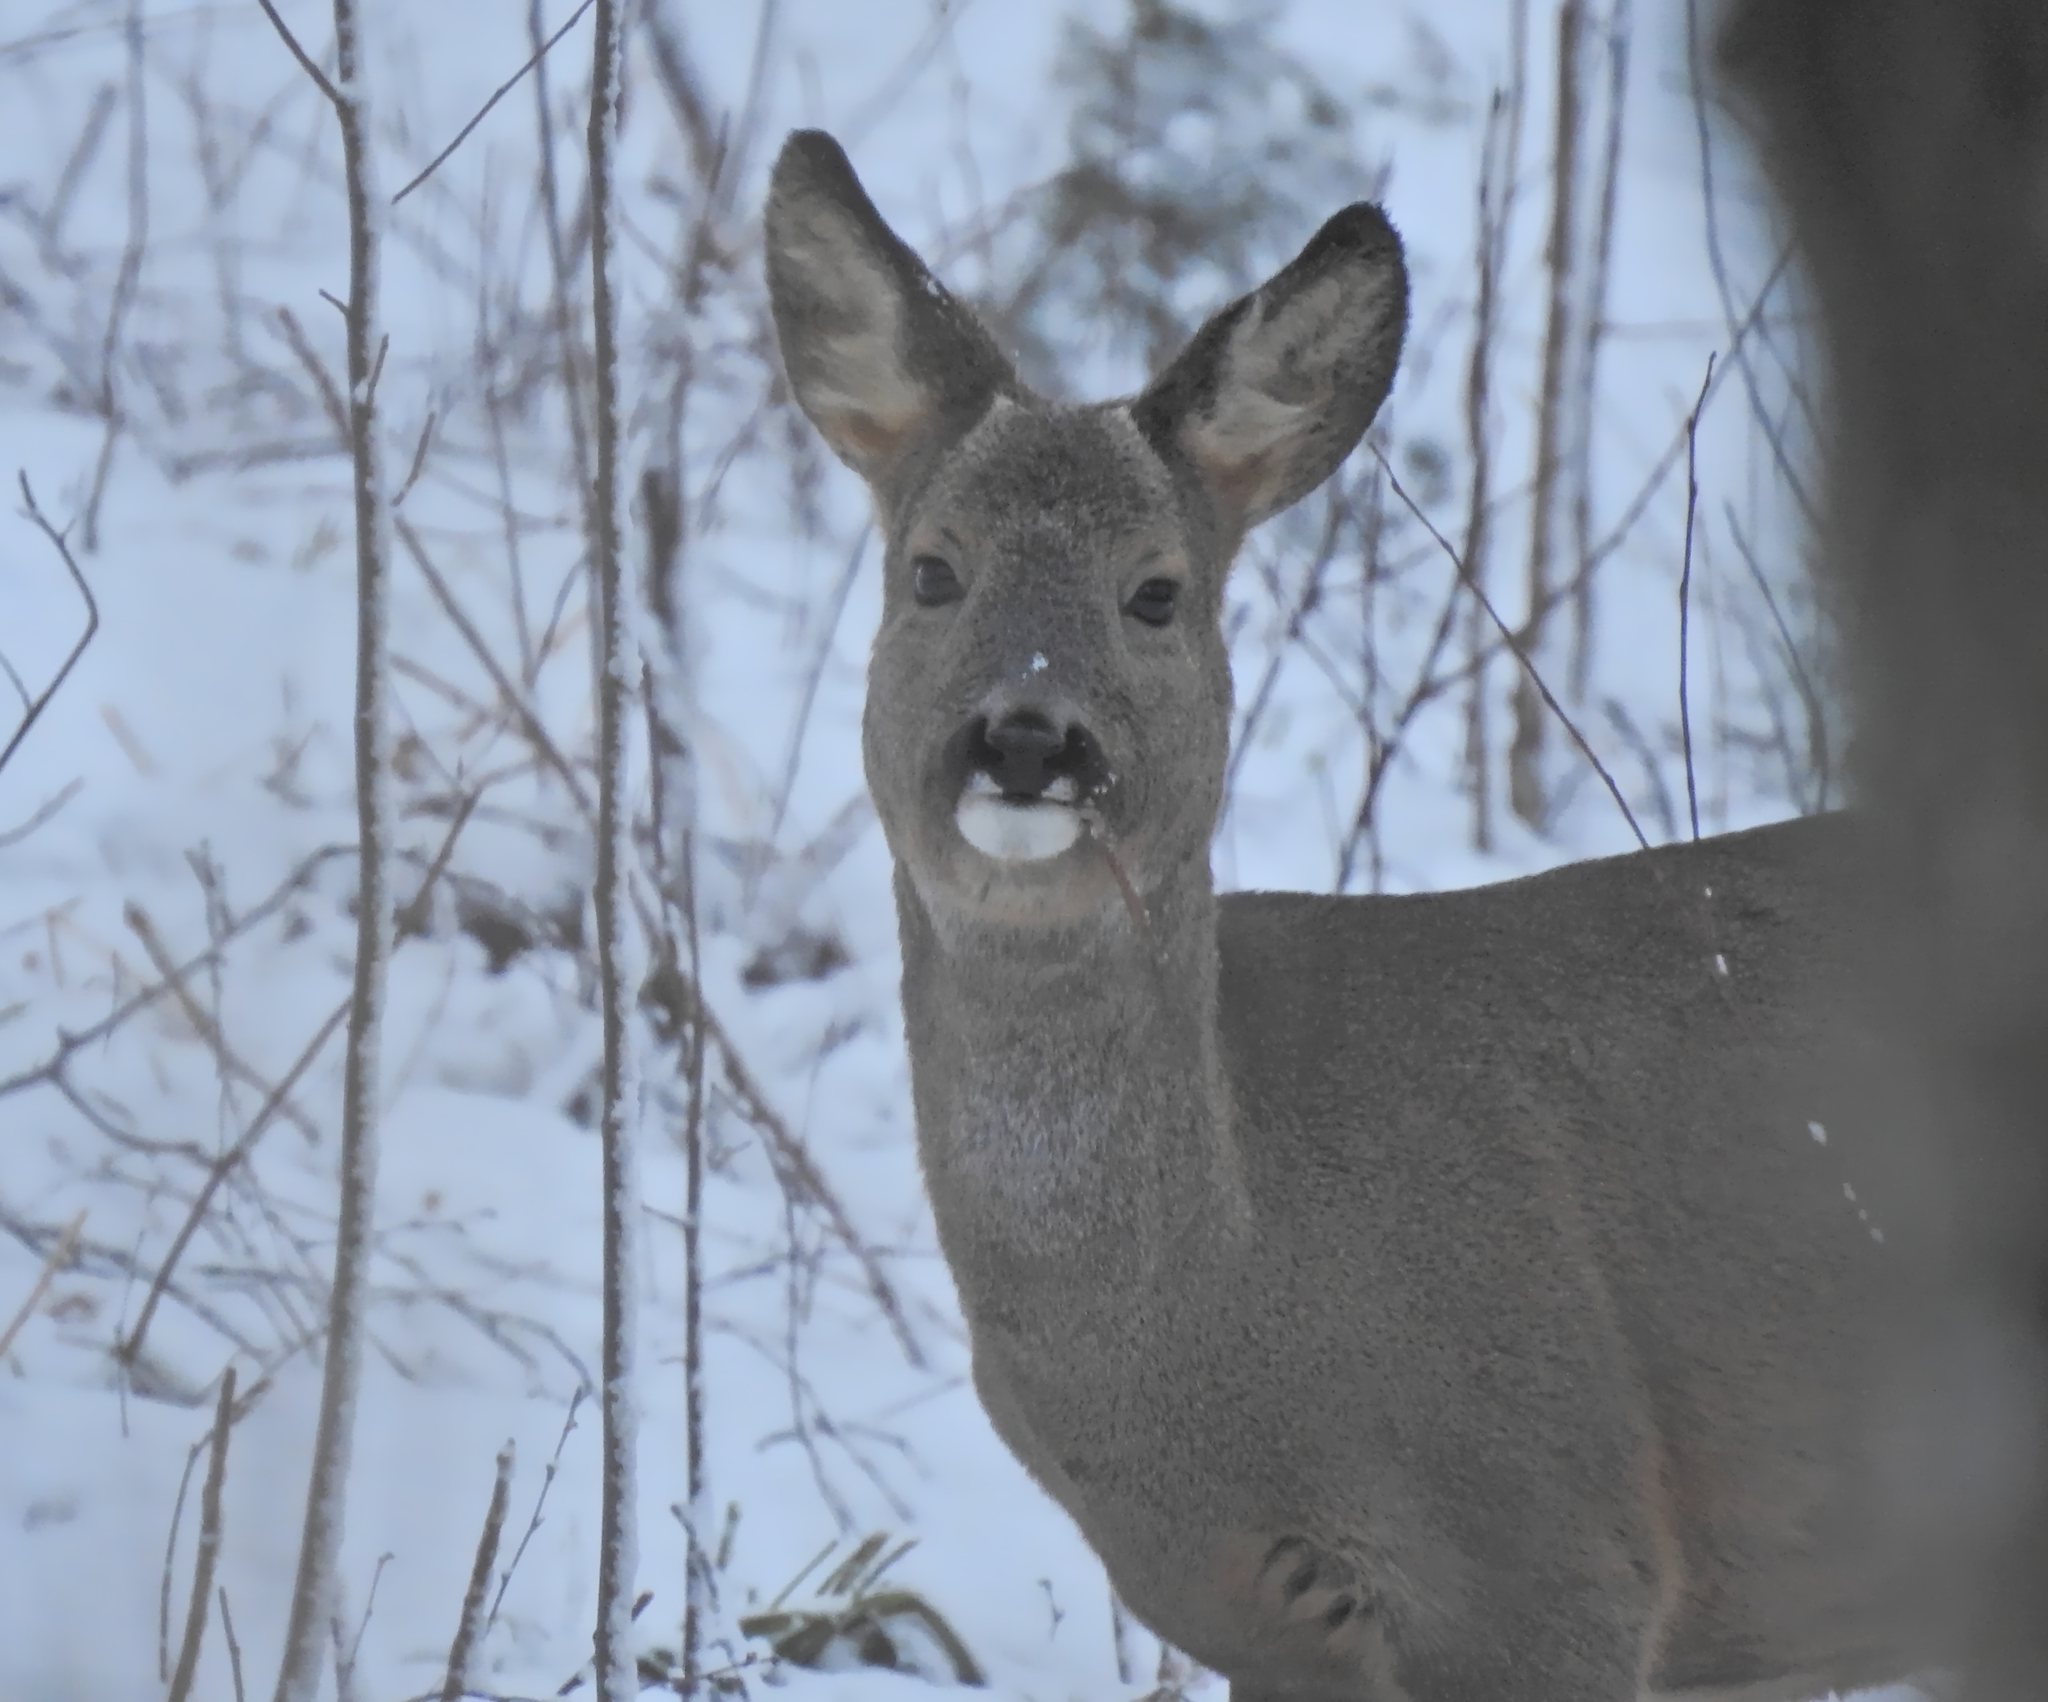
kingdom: Animalia
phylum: Chordata
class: Mammalia
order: Artiodactyla
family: Cervidae
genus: Capreolus
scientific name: Capreolus capreolus
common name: Western roe deer
